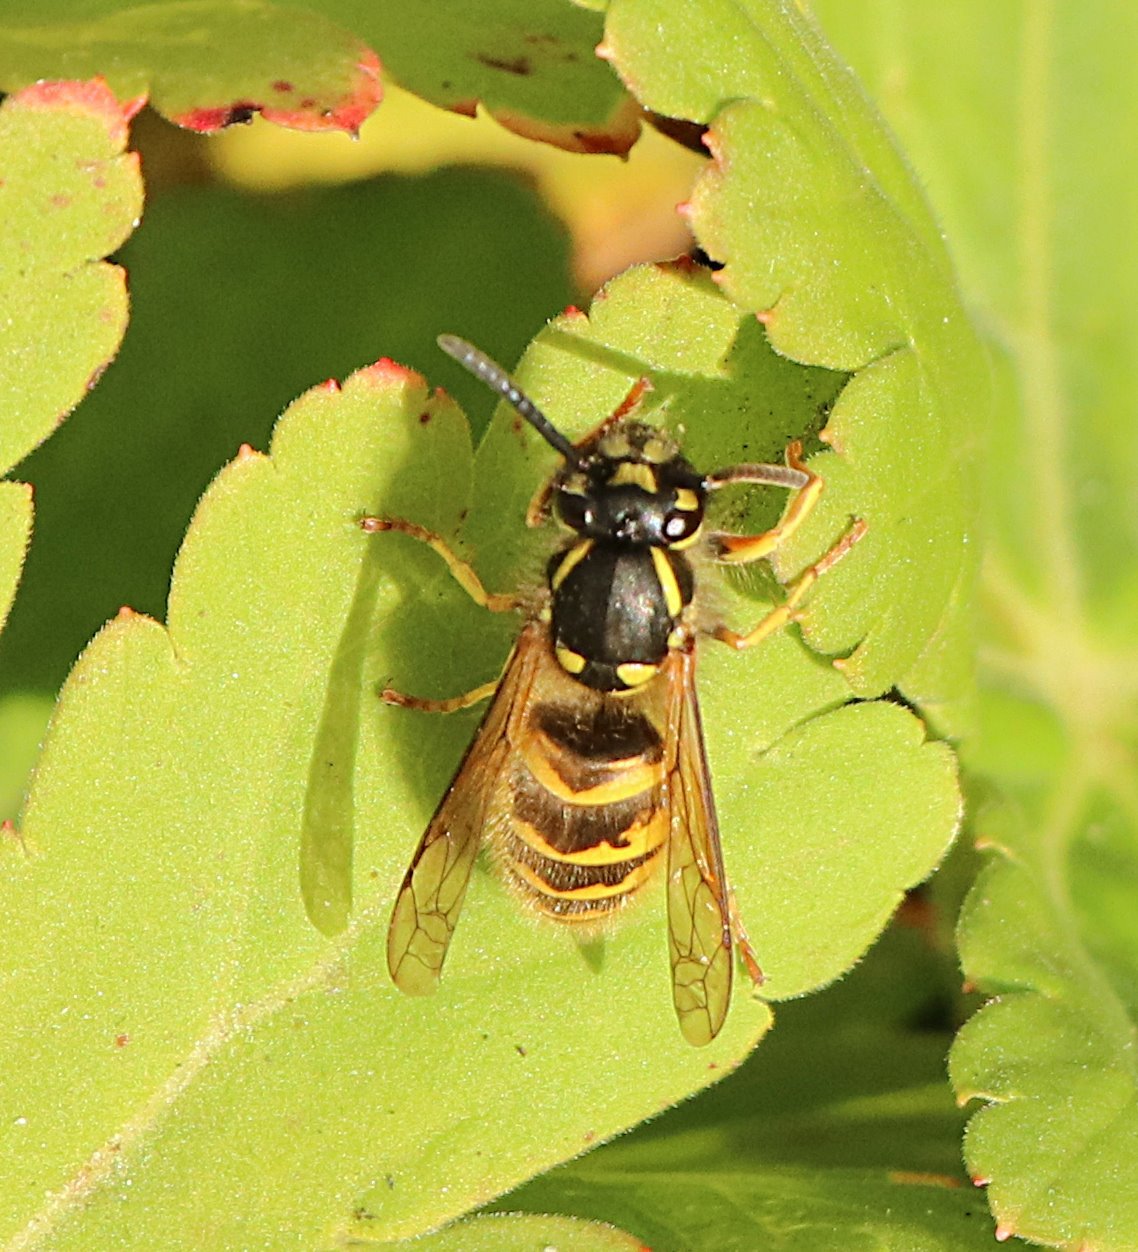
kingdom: Animalia
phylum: Arthropoda
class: Insecta
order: Hymenoptera
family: Vespidae
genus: Vespula
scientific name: Vespula vulgaris
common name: Common wasp
